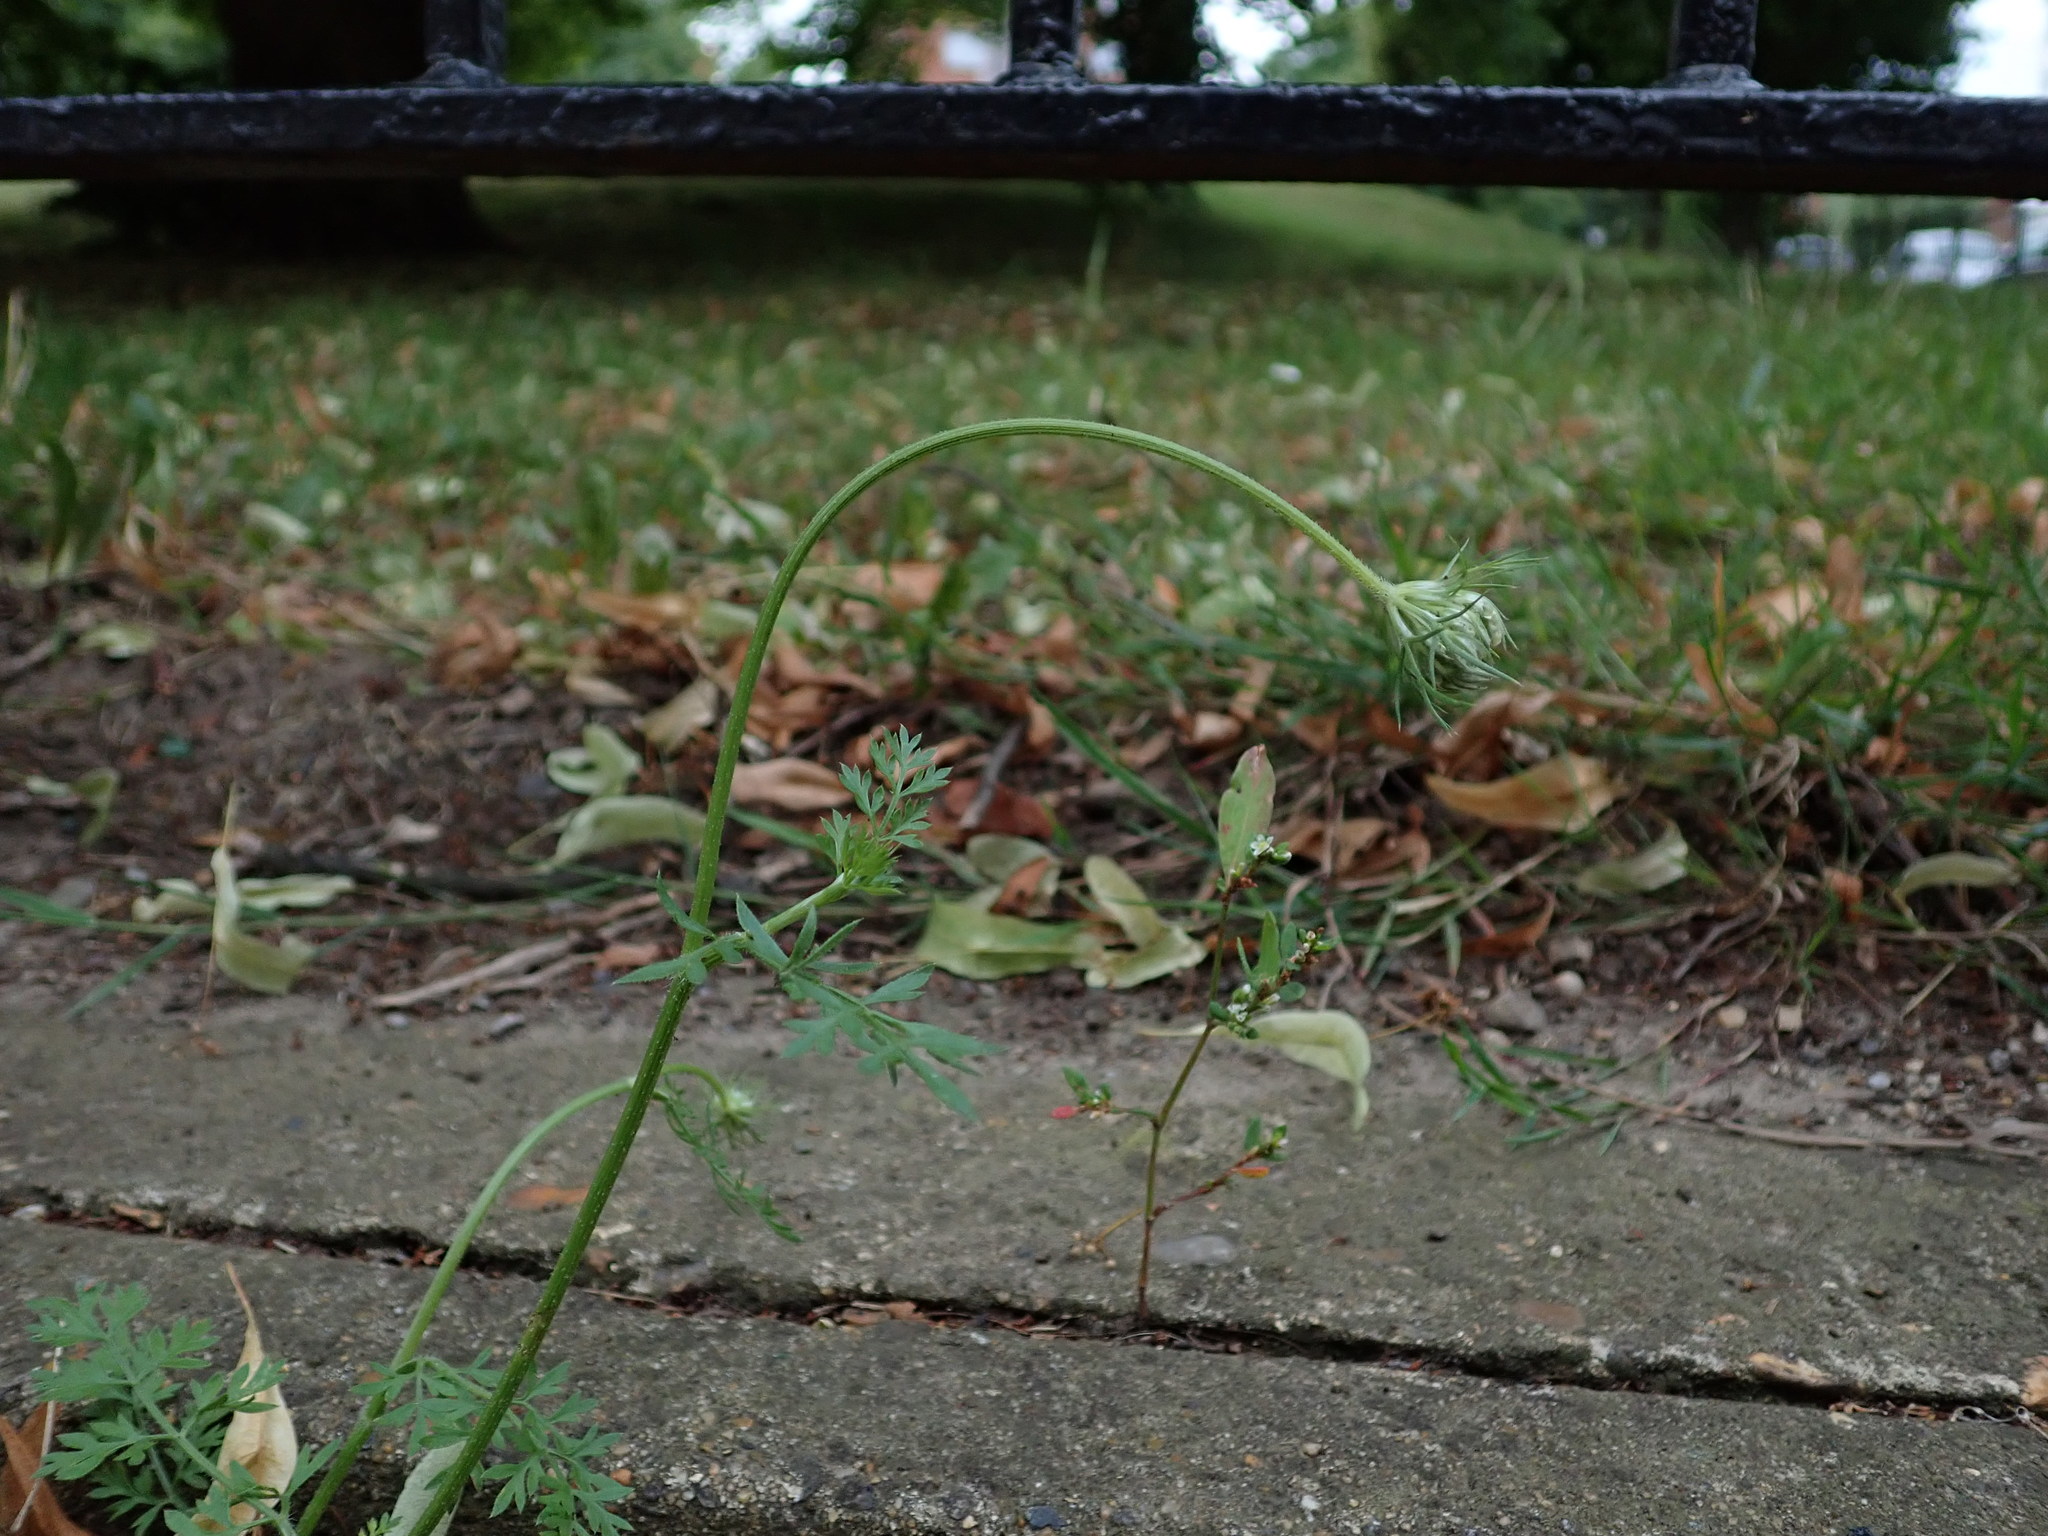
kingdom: Plantae
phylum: Tracheophyta
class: Magnoliopsida
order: Apiales
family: Apiaceae
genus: Daucus
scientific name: Daucus carota
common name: Wild carrot
